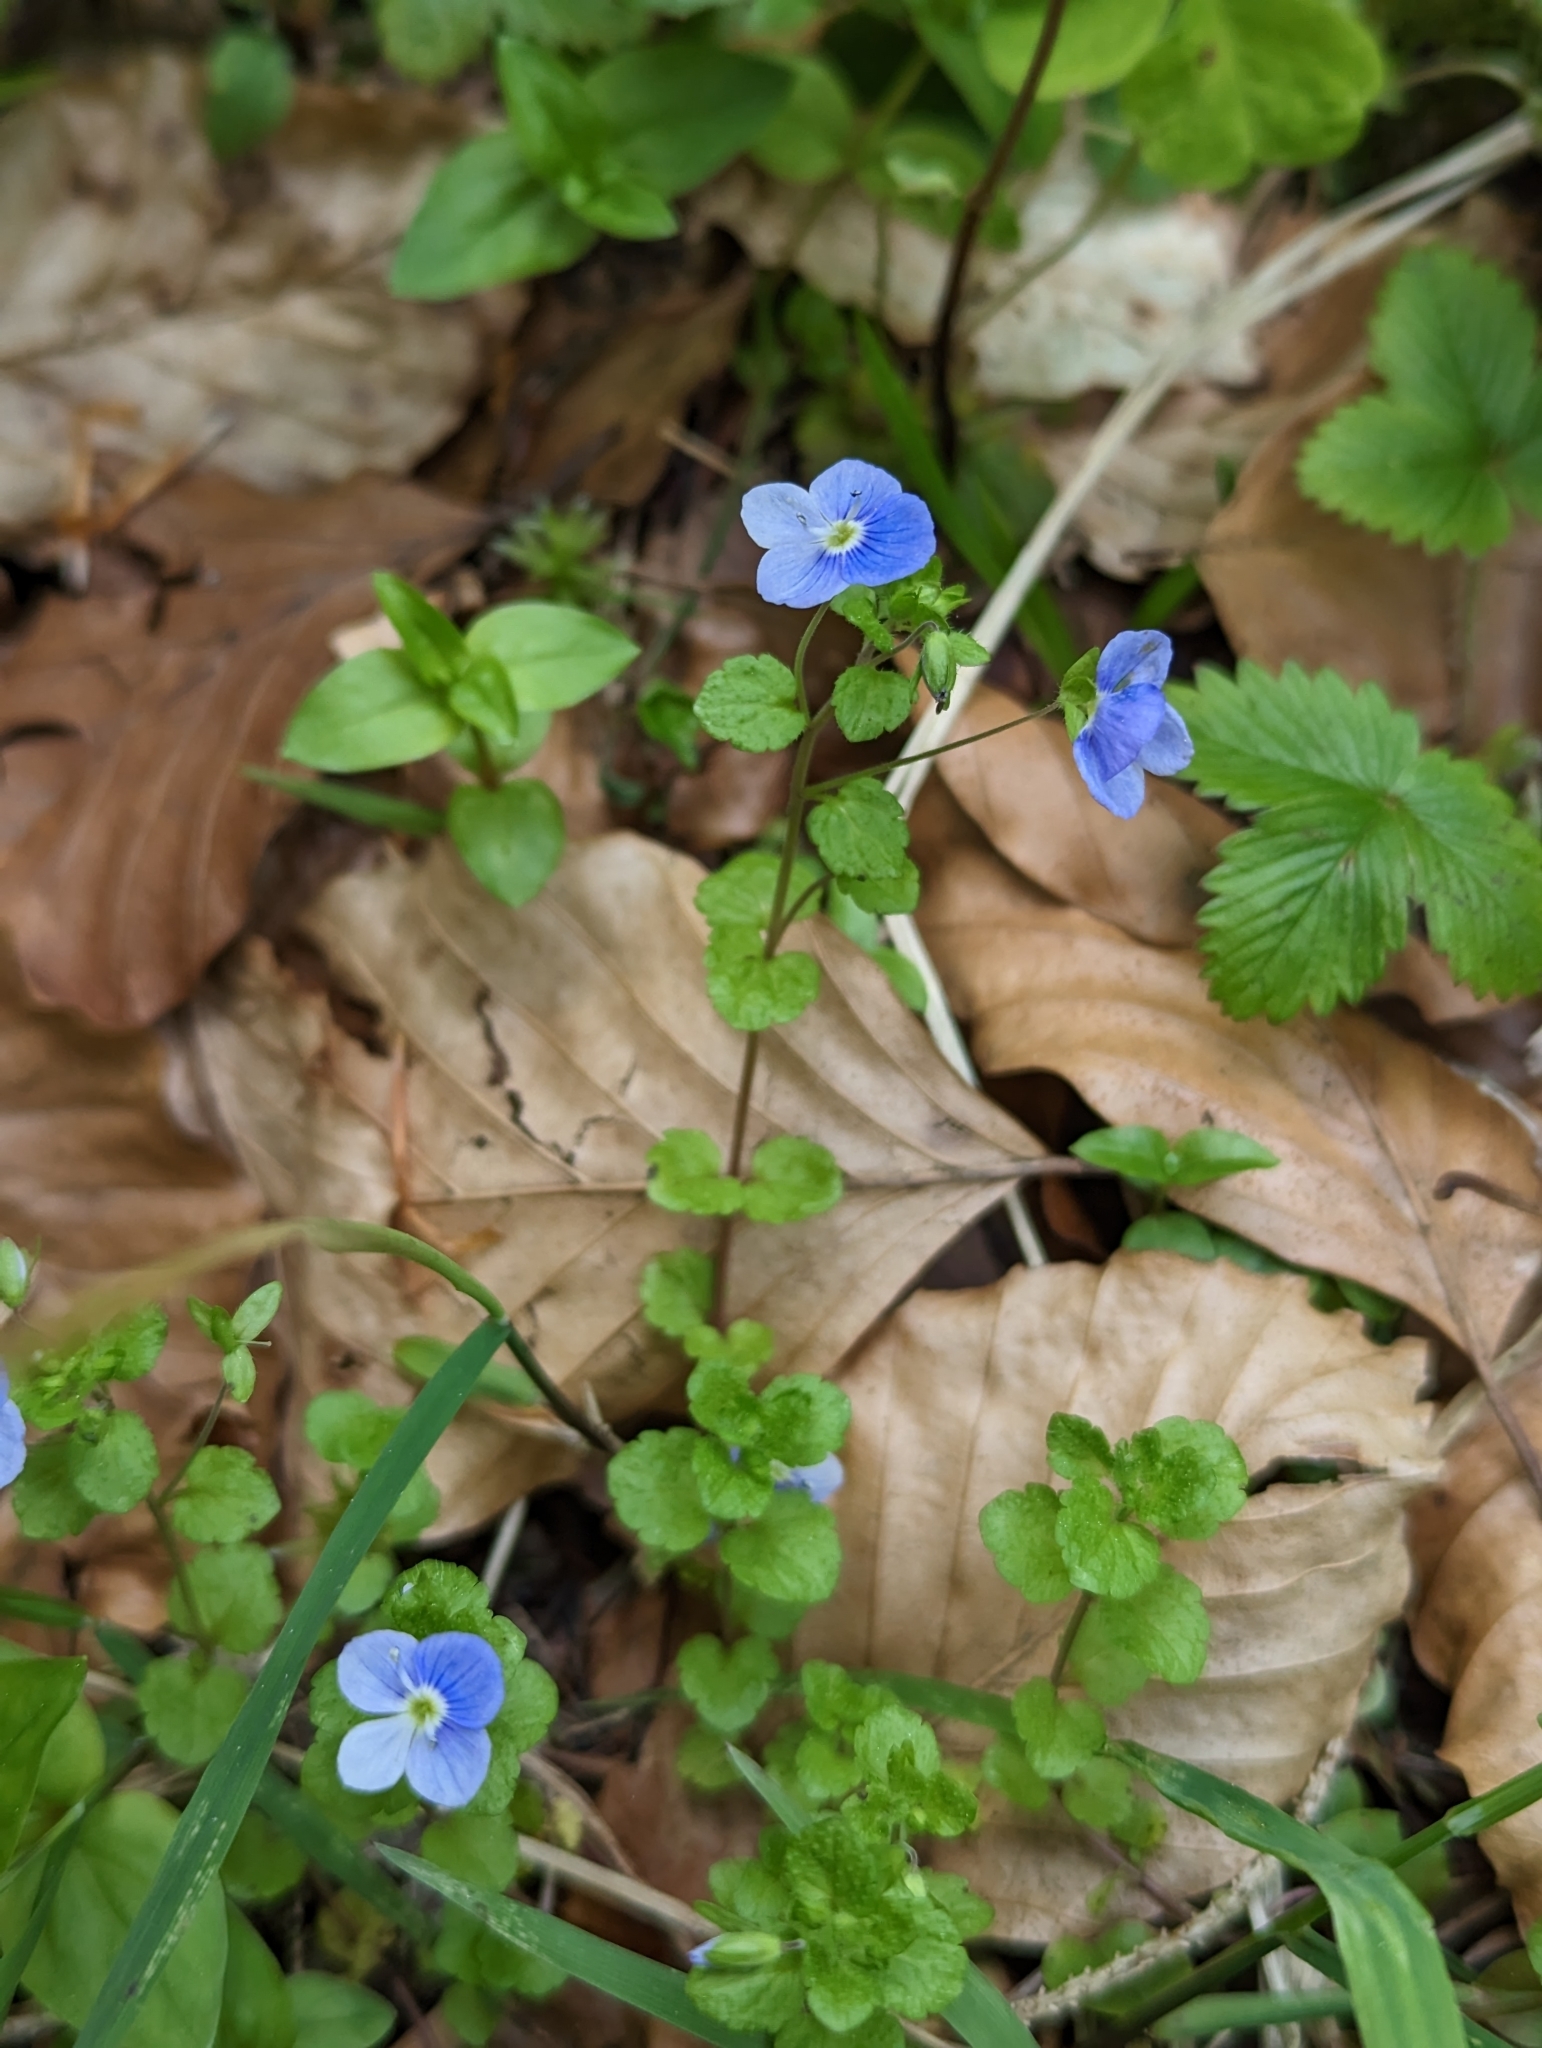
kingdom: Plantae
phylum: Tracheophyta
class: Magnoliopsida
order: Lamiales
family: Plantaginaceae
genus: Veronica
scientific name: Veronica filiformis
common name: Slender speedwell
